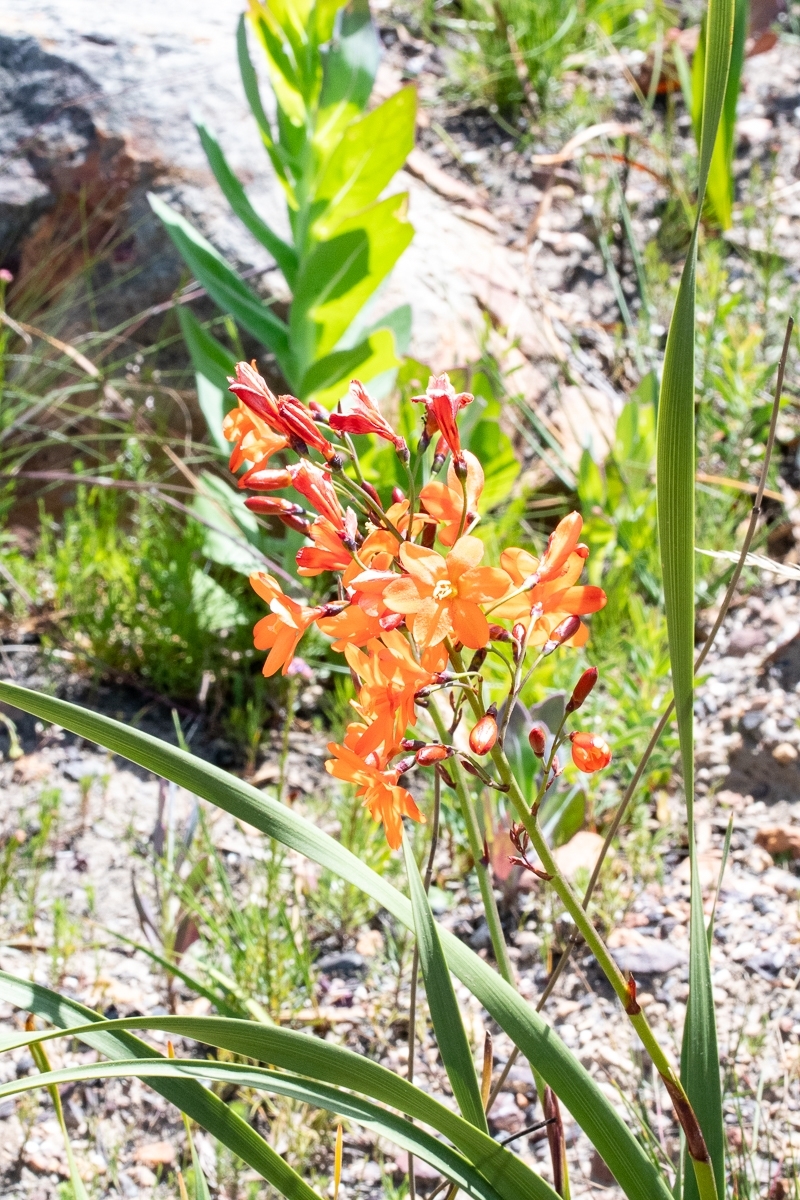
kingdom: Plantae
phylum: Tracheophyta
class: Liliopsida
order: Asparagales
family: Iridaceae
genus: Pillansia
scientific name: Pillansia templemannii
